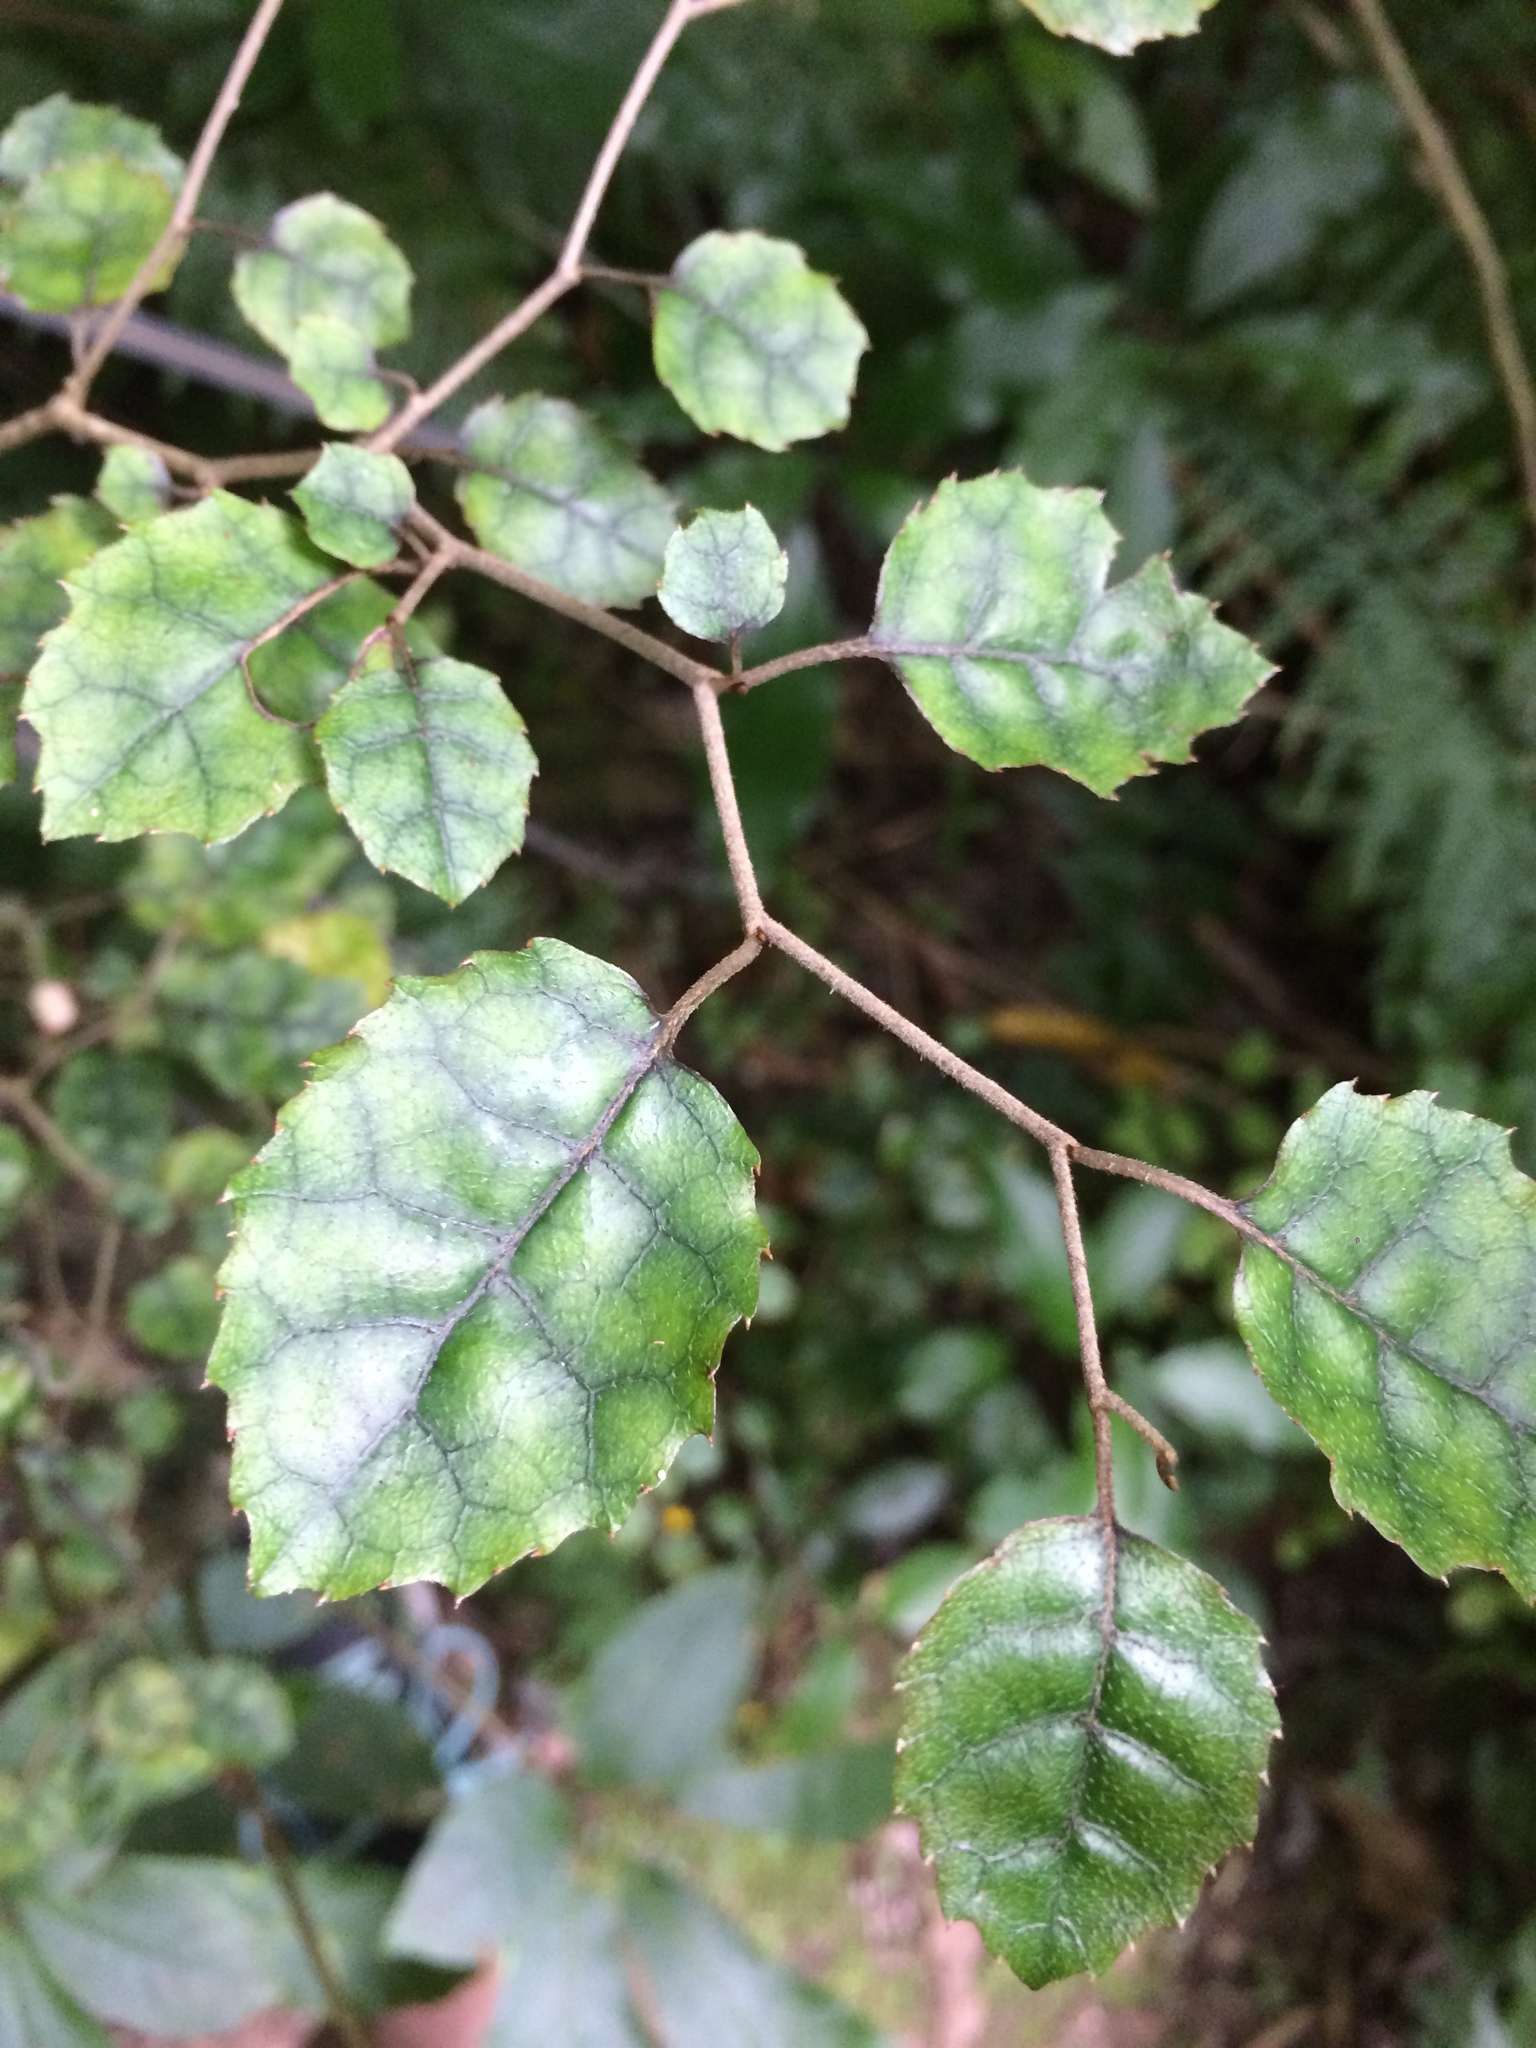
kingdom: Plantae
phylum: Tracheophyta
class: Magnoliopsida
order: Asterales
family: Rousseaceae
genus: Carpodetus
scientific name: Carpodetus serratus
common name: White mapau
